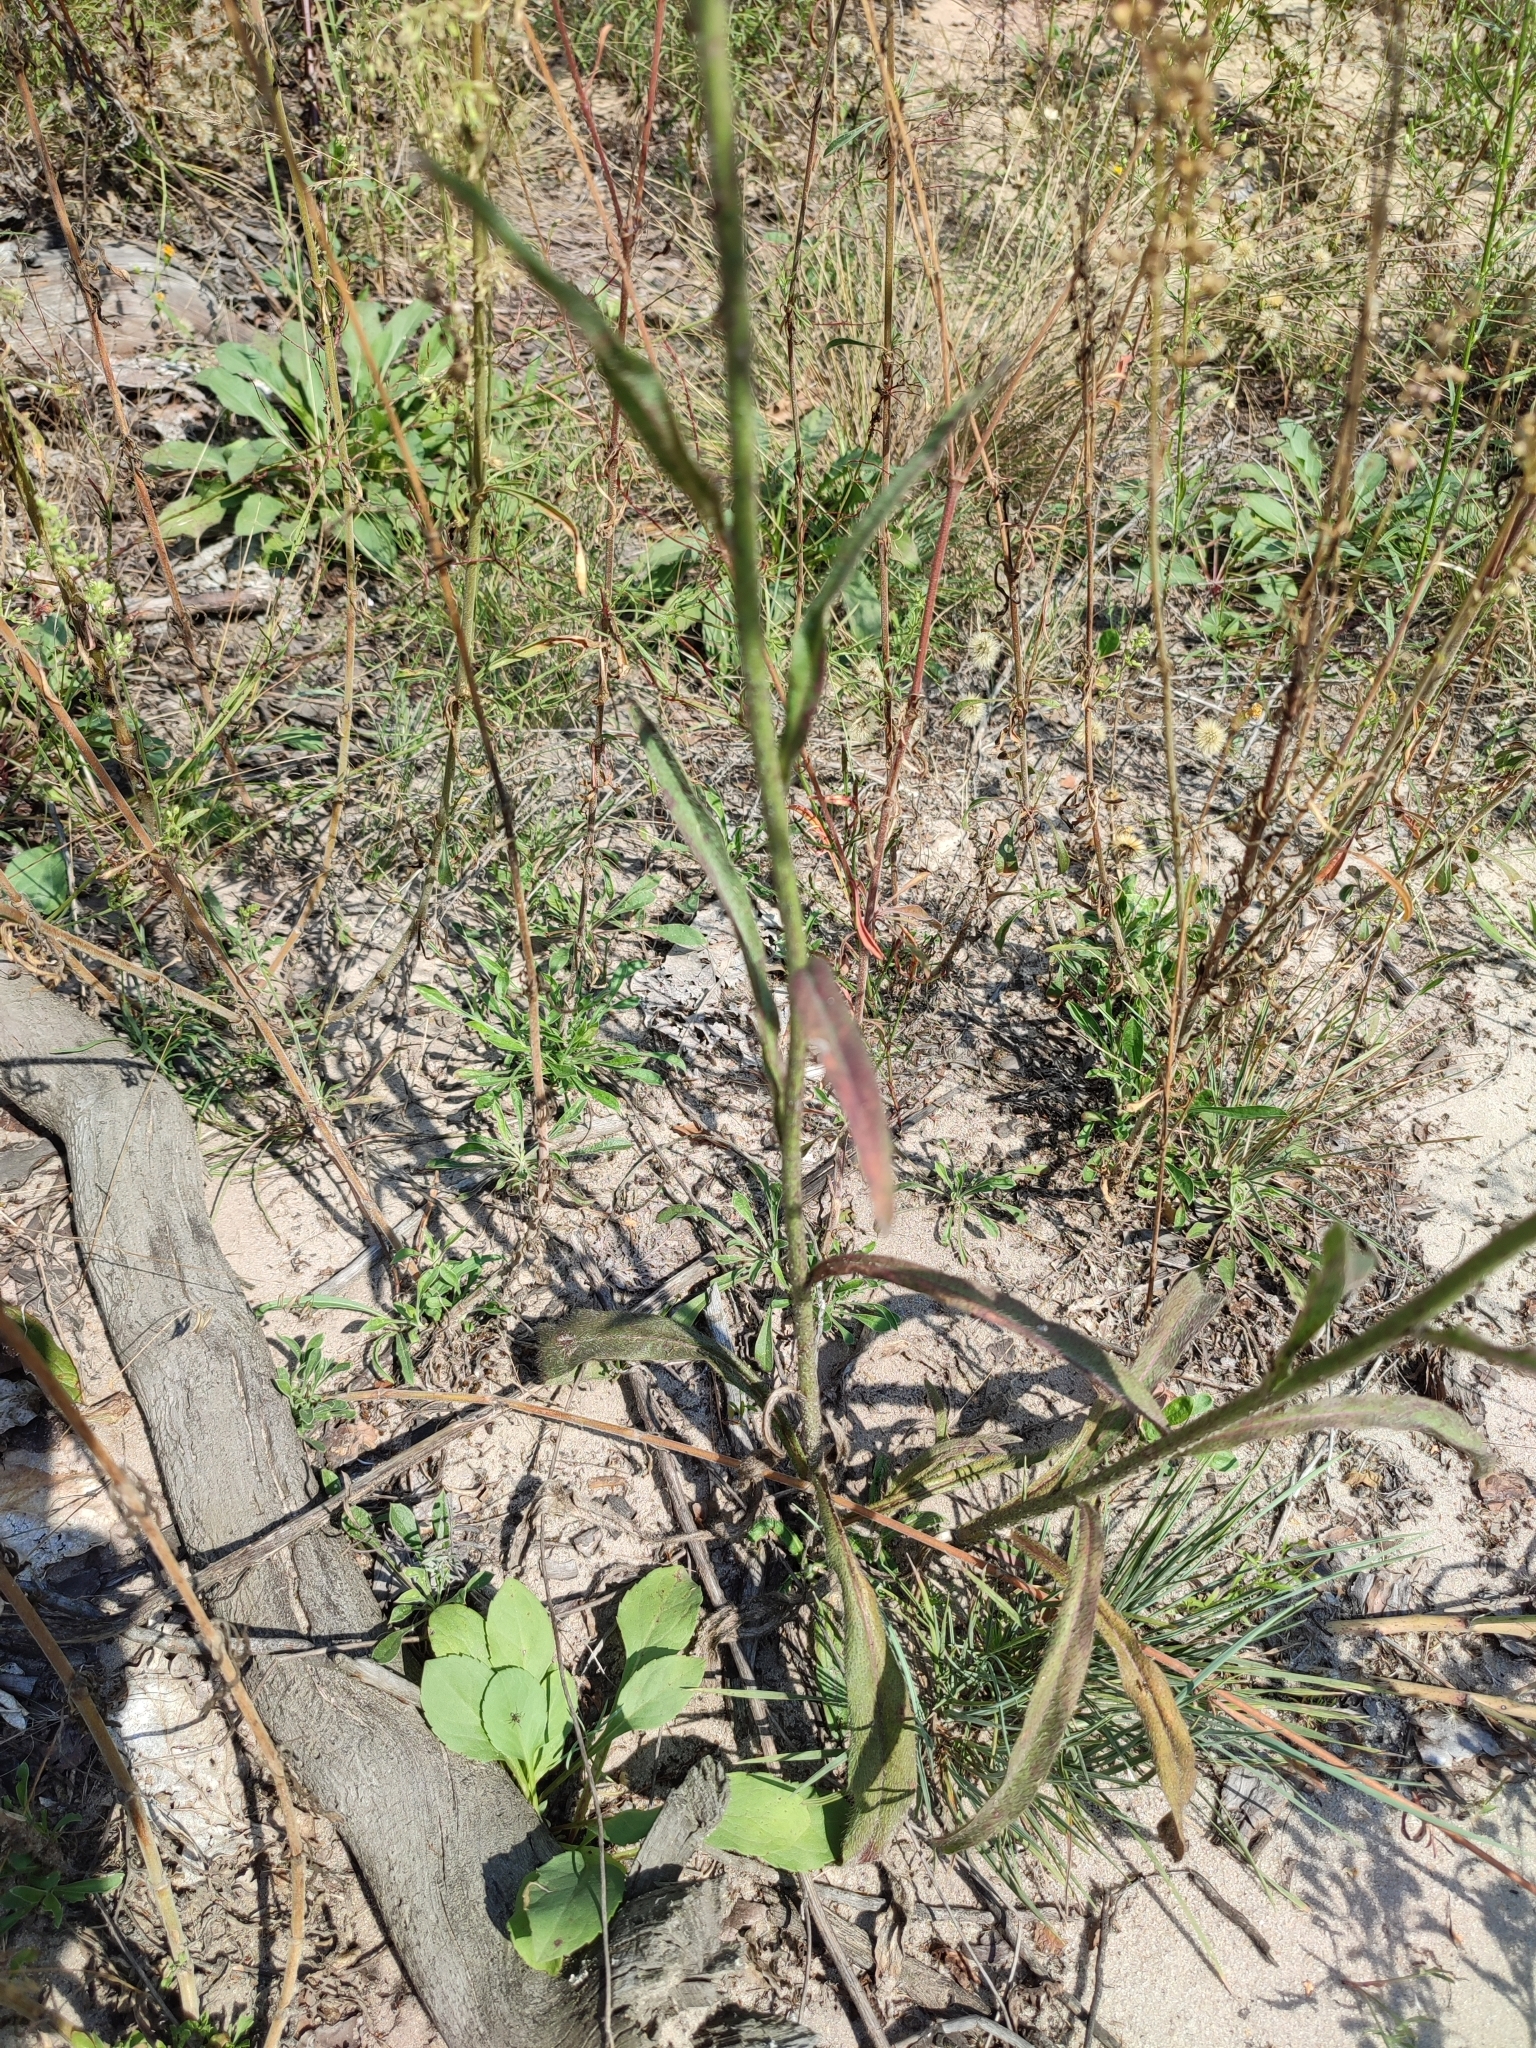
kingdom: Plantae
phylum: Tracheophyta
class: Magnoliopsida
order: Asterales
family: Asteraceae
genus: Pilosella
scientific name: Pilosella echioides
